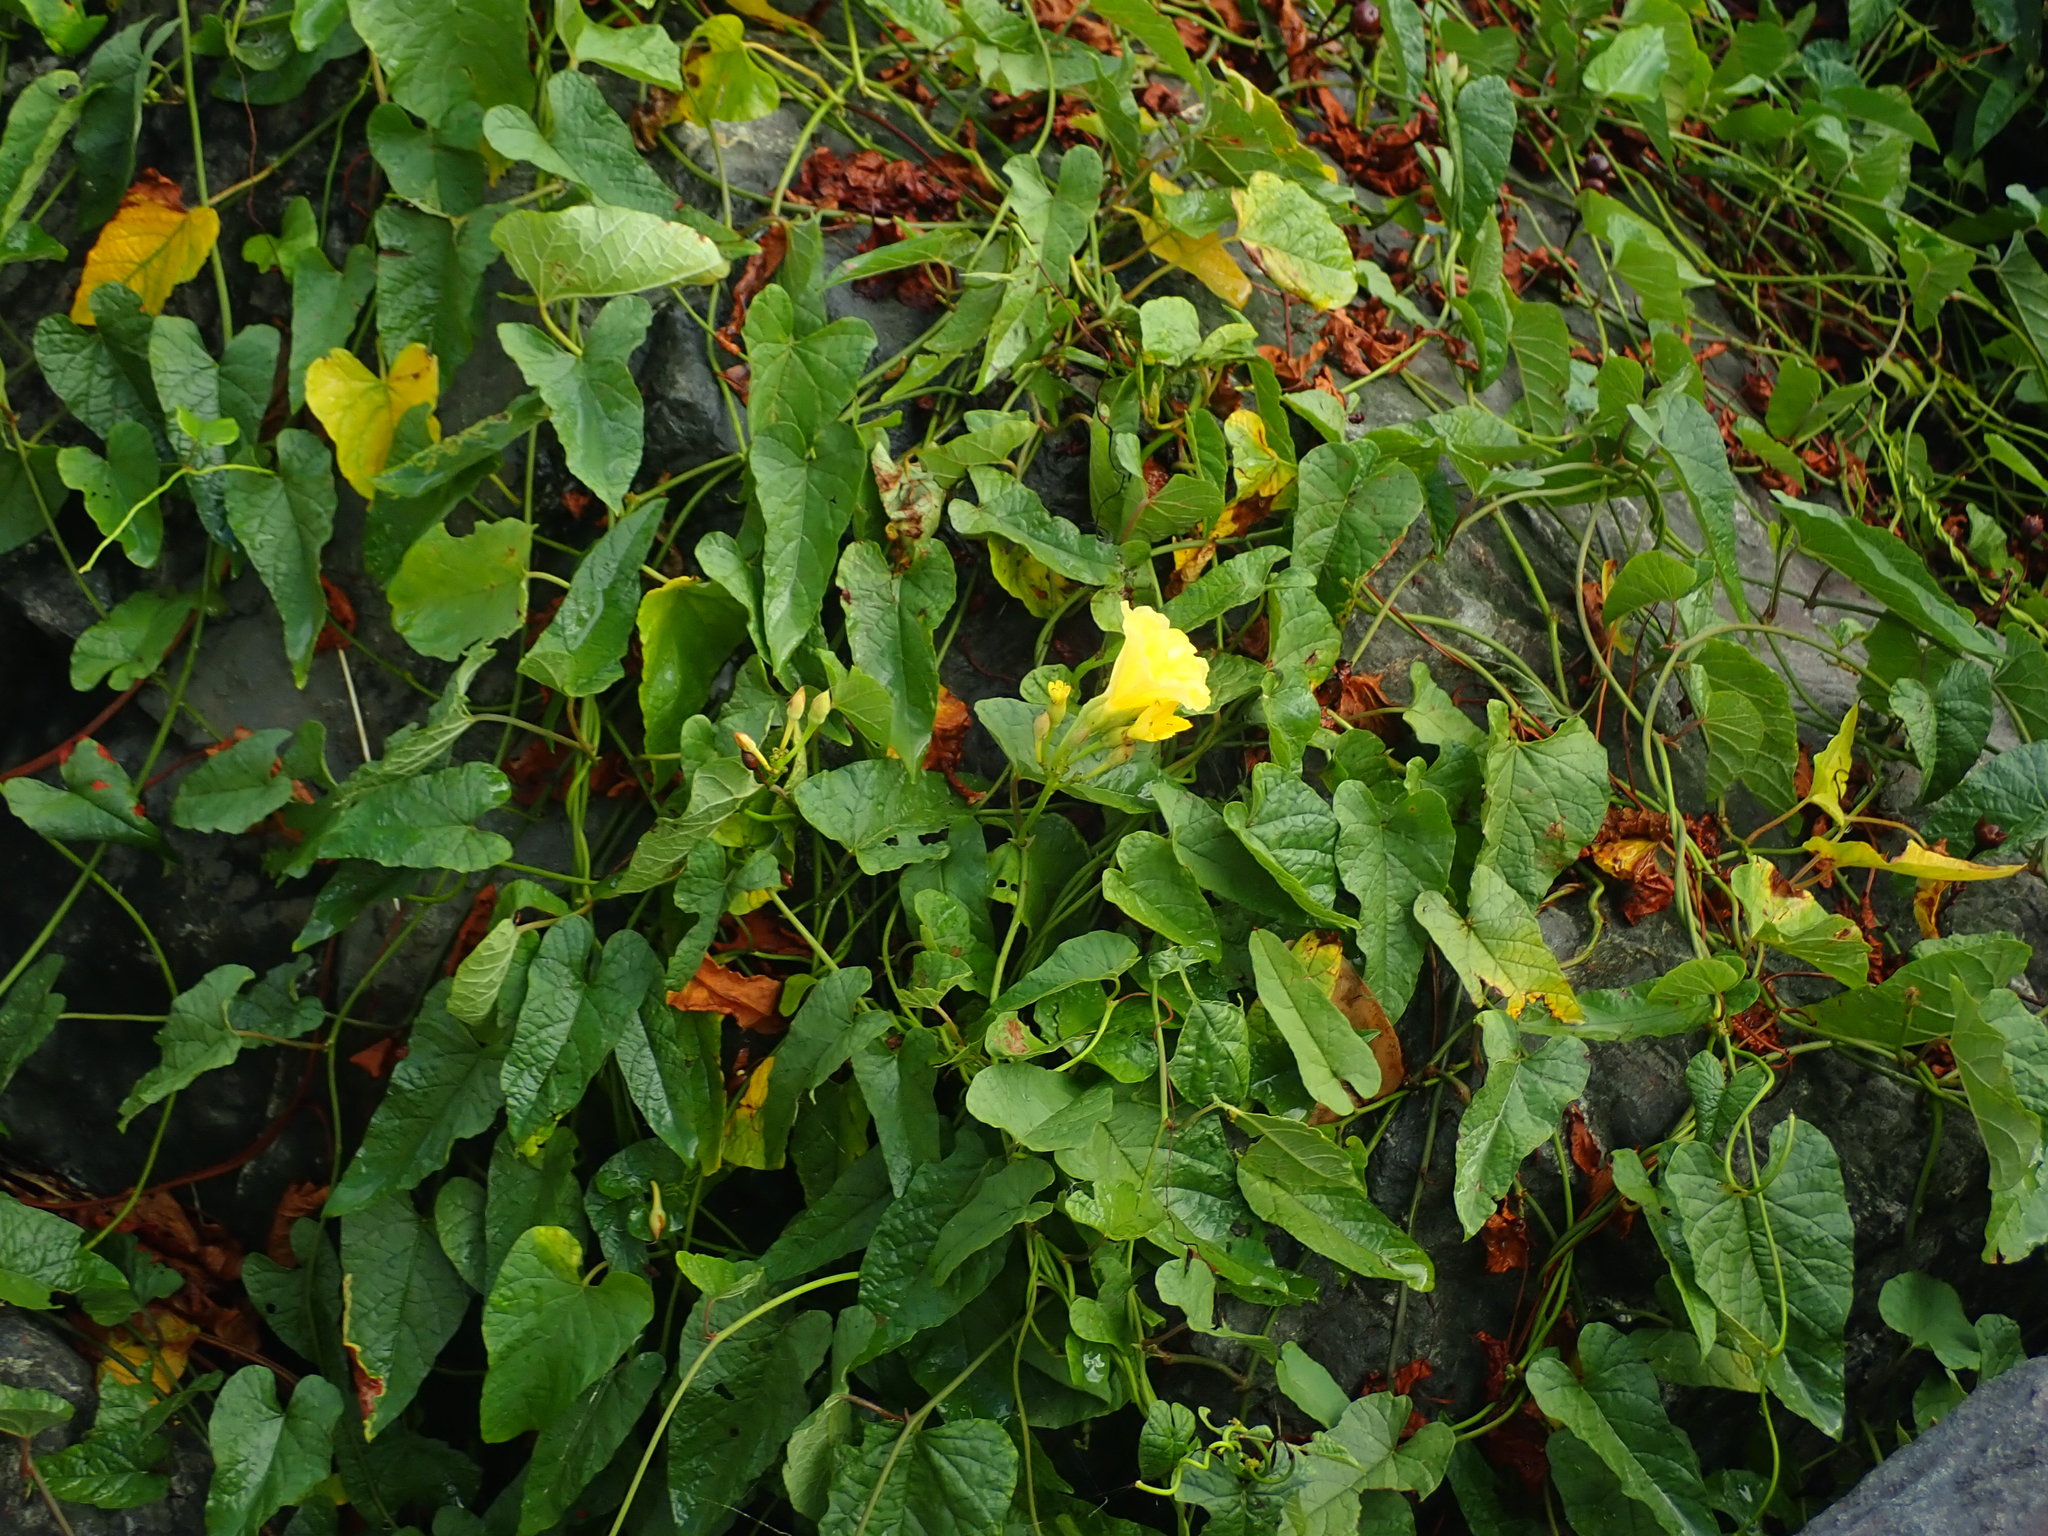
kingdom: Plantae
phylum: Tracheophyta
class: Magnoliopsida
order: Solanales
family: Convolvulaceae
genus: Camonea
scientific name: Camonea umbellata
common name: Hogvine
